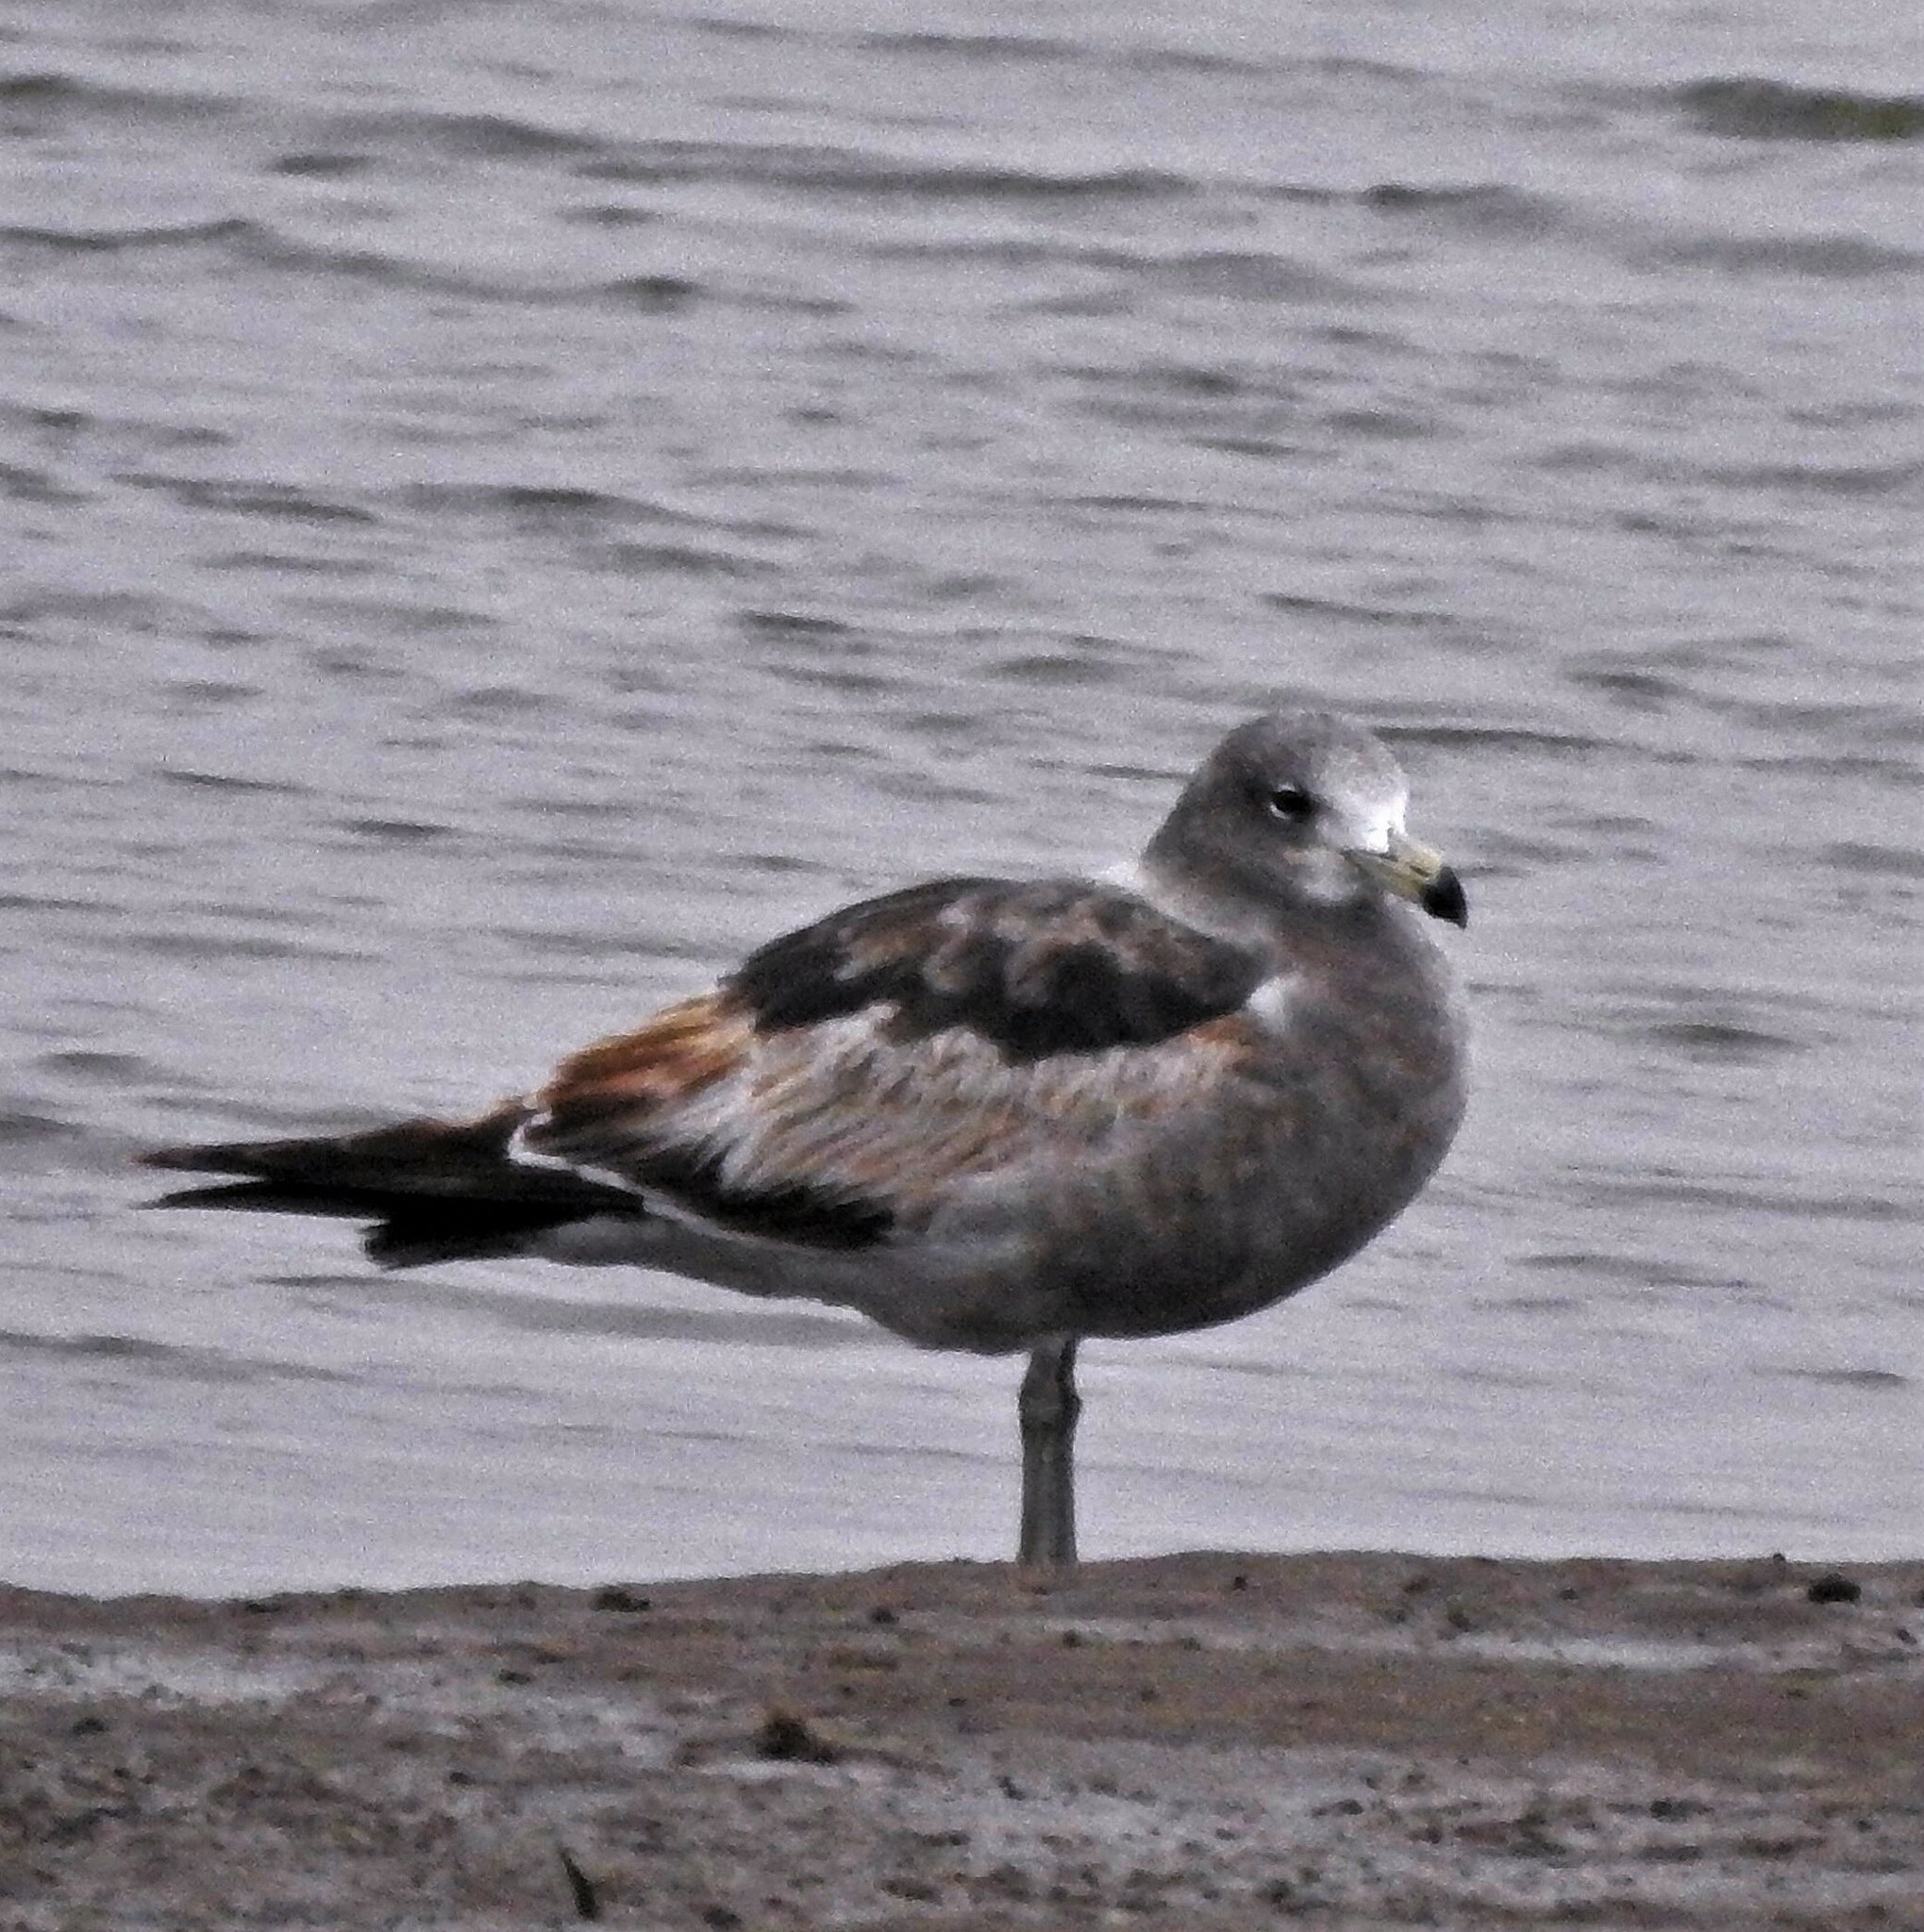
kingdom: Animalia
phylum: Chordata
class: Aves
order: Charadriiformes
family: Laridae
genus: Larus
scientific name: Larus atlanticus
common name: Olrog's gull
